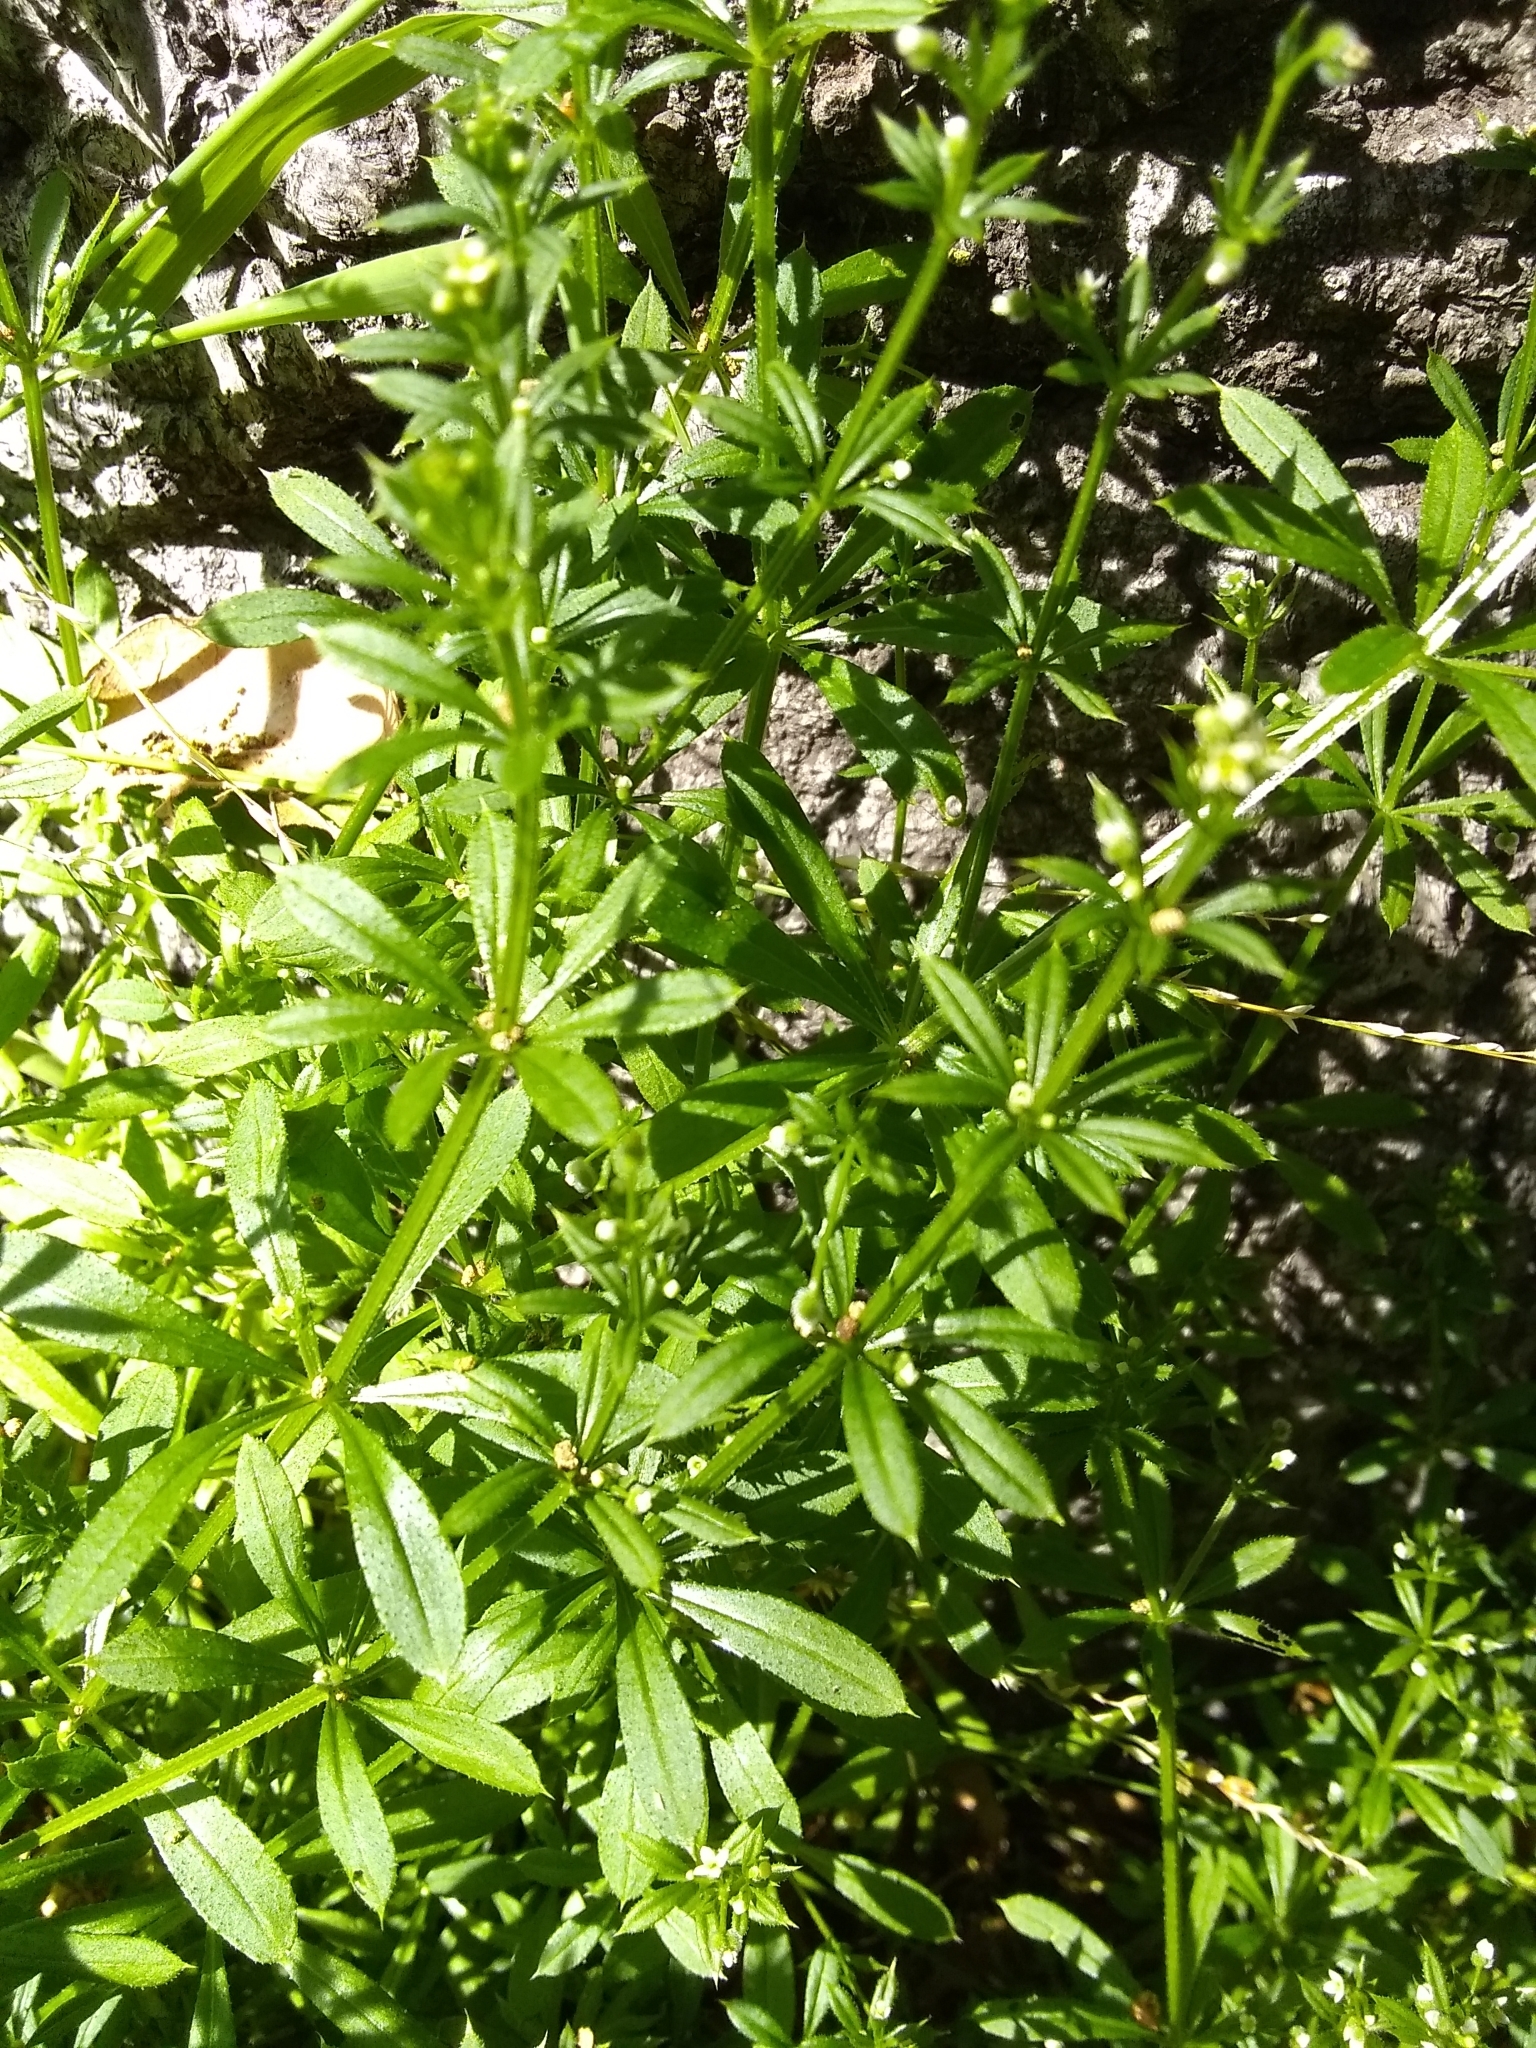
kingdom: Plantae
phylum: Tracheophyta
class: Magnoliopsida
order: Gentianales
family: Rubiaceae
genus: Galium
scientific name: Galium aparine
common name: Cleavers
